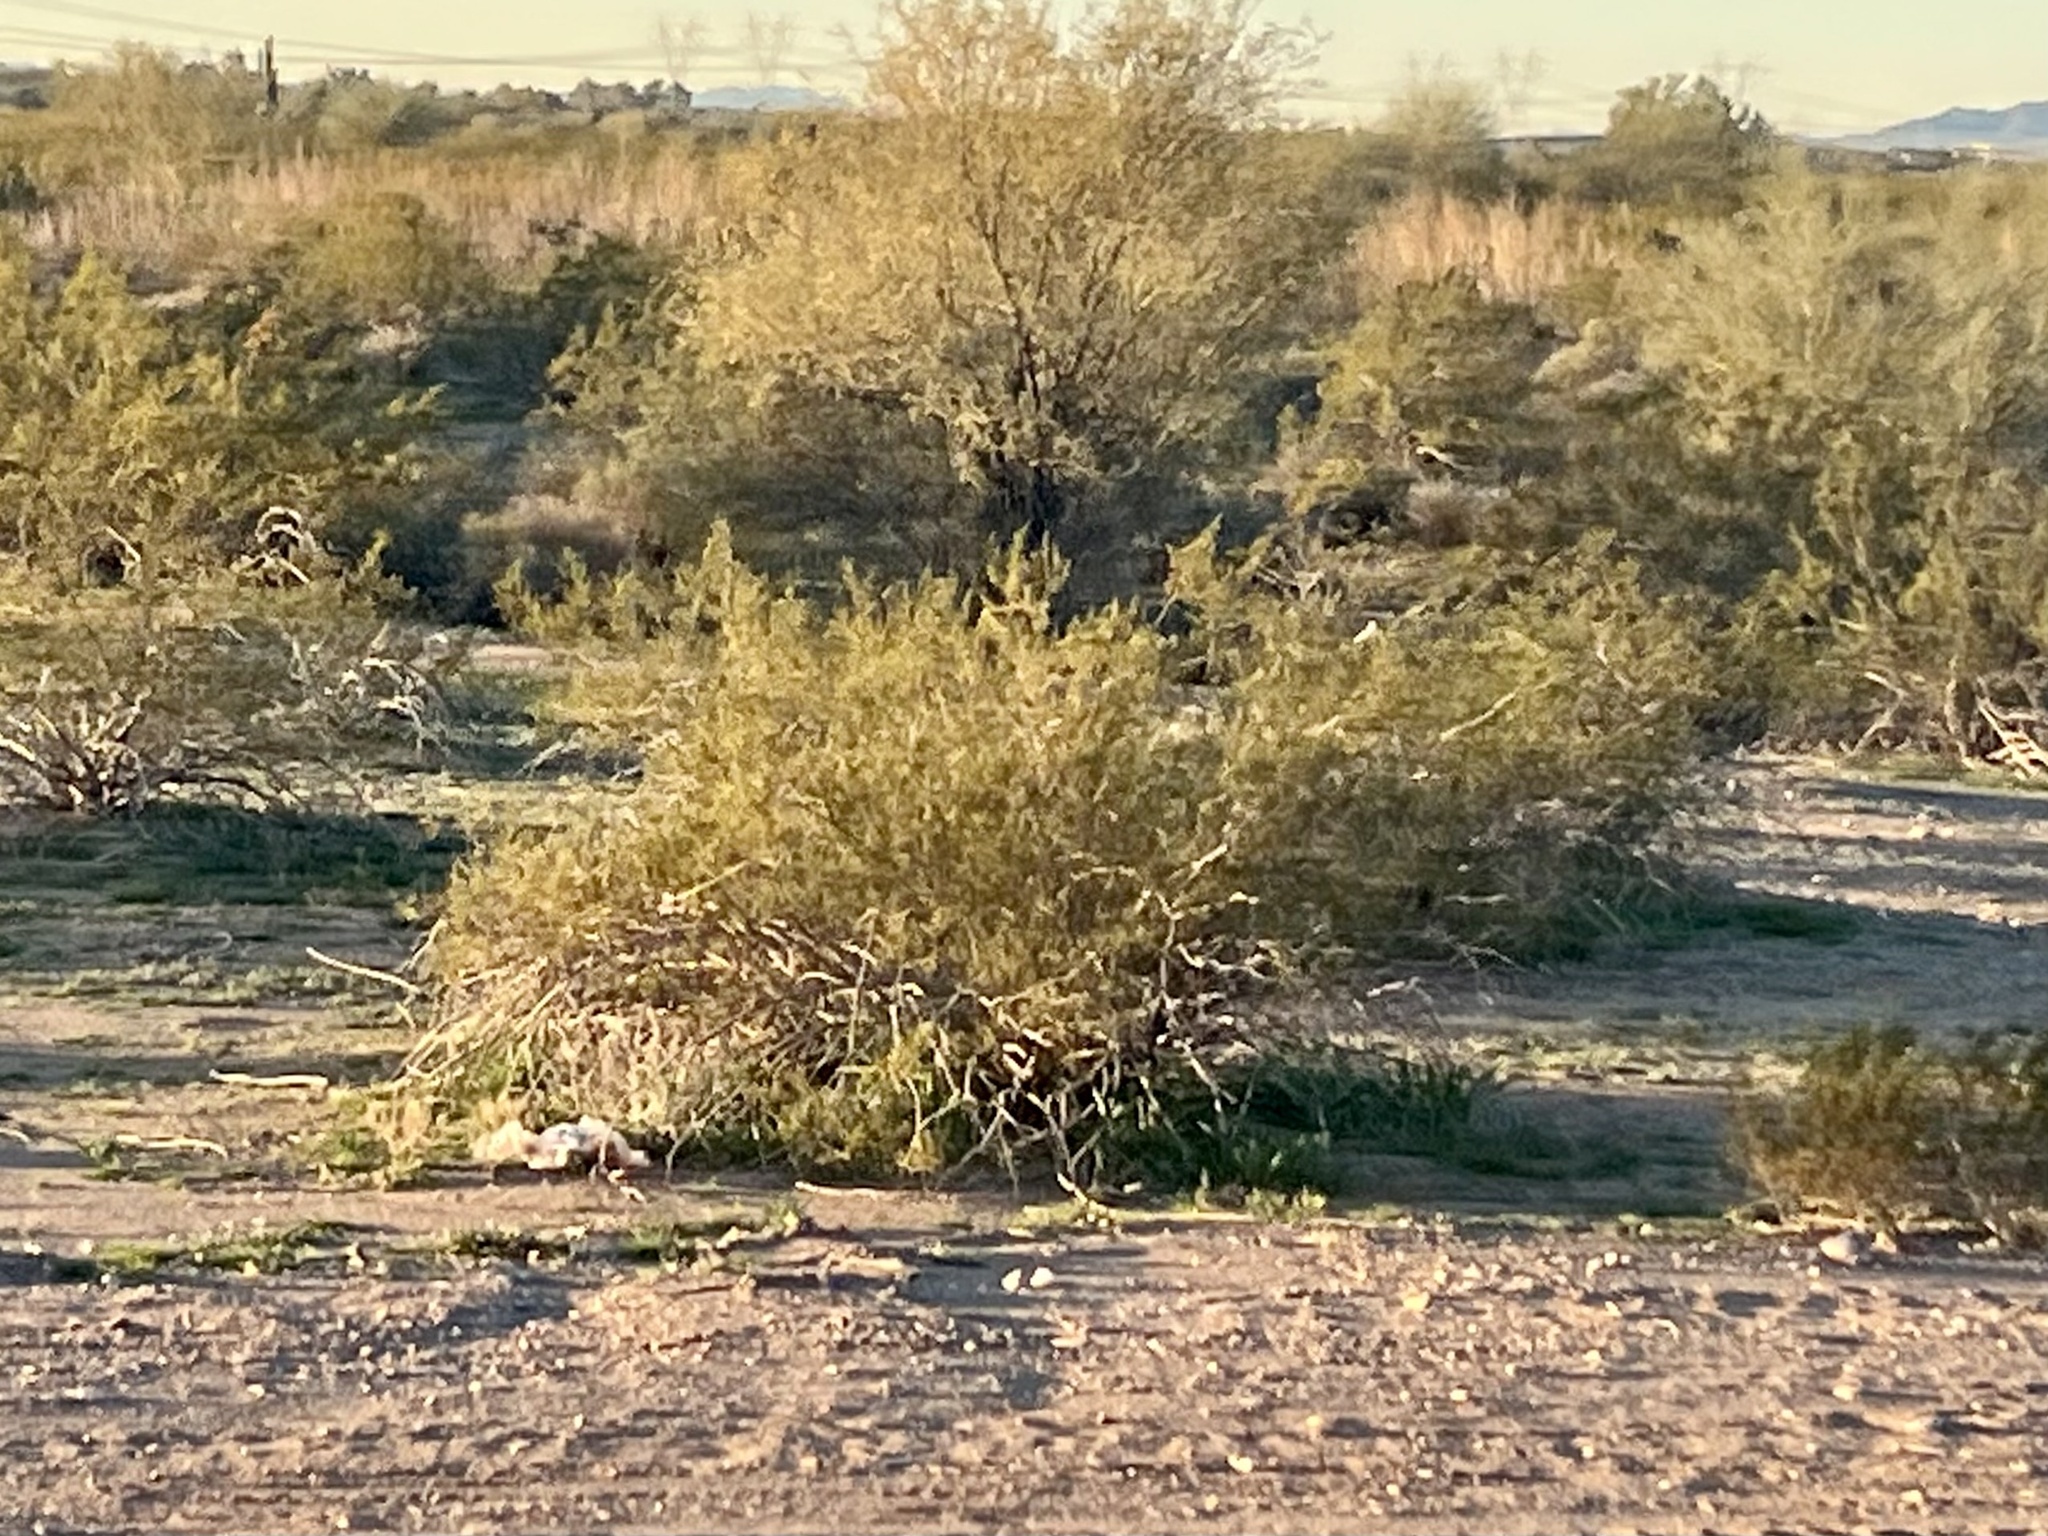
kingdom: Plantae
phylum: Tracheophyta
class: Magnoliopsida
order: Zygophyllales
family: Zygophyllaceae
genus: Larrea
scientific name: Larrea tridentata
